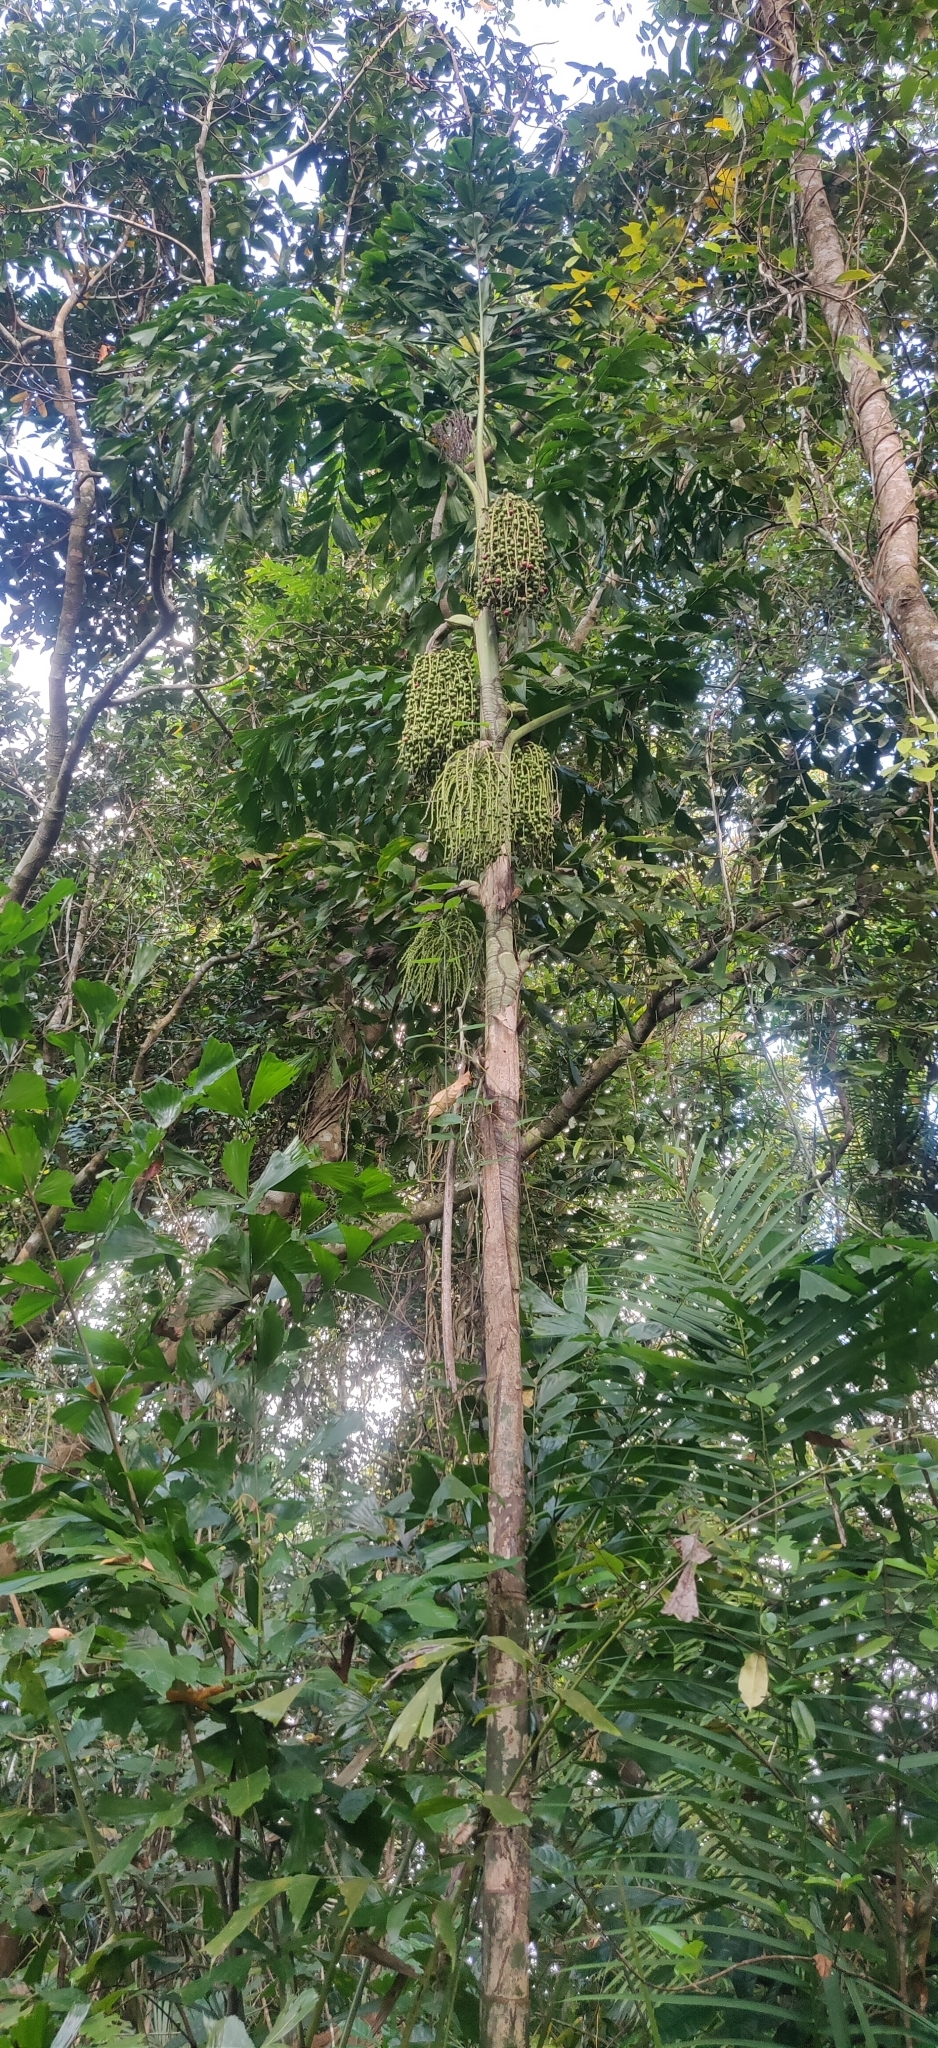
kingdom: Plantae
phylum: Tracheophyta
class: Liliopsida
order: Arecales
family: Arecaceae
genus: Caryota
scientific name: Caryota mitis
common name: Burmese fishtail palm
